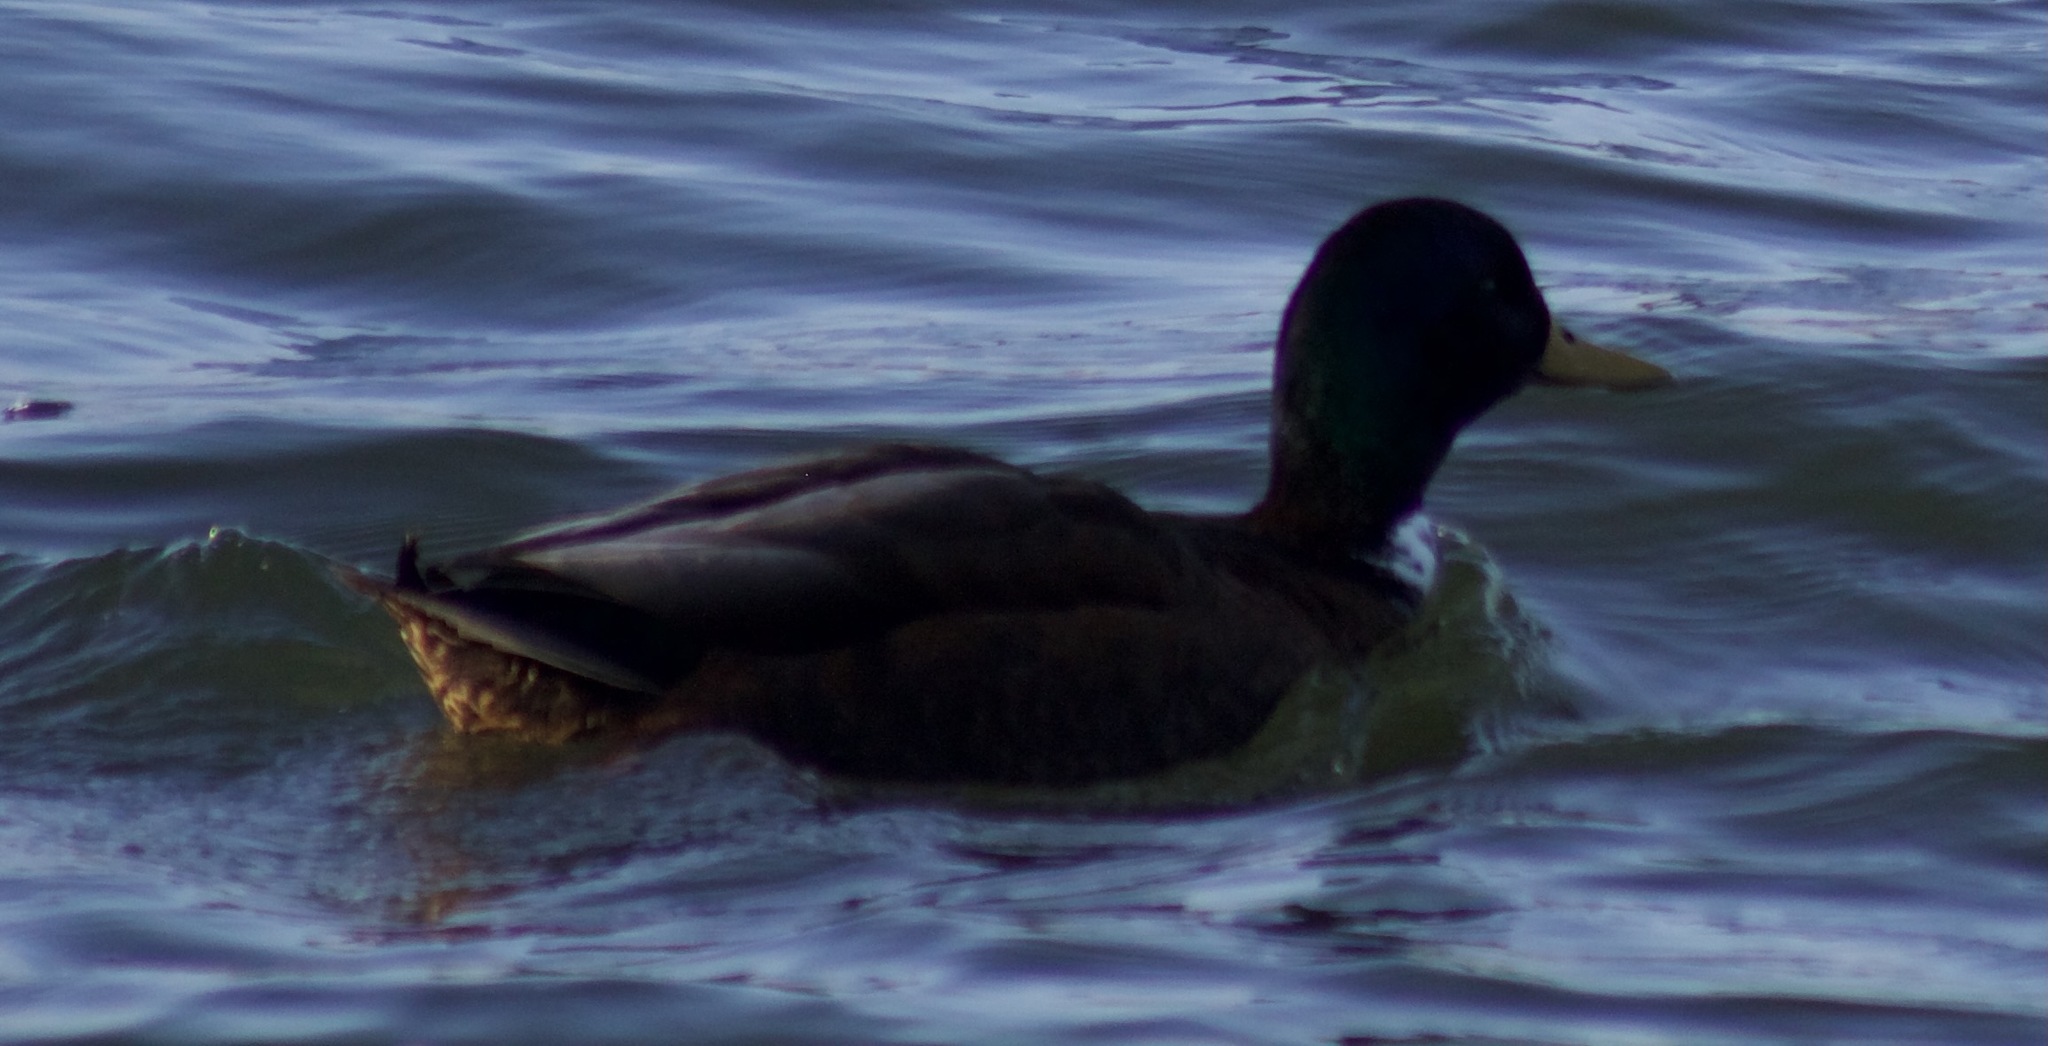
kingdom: Animalia
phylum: Chordata
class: Aves
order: Anseriformes
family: Anatidae
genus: Anas
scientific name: Anas platyrhynchos
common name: Mallard
